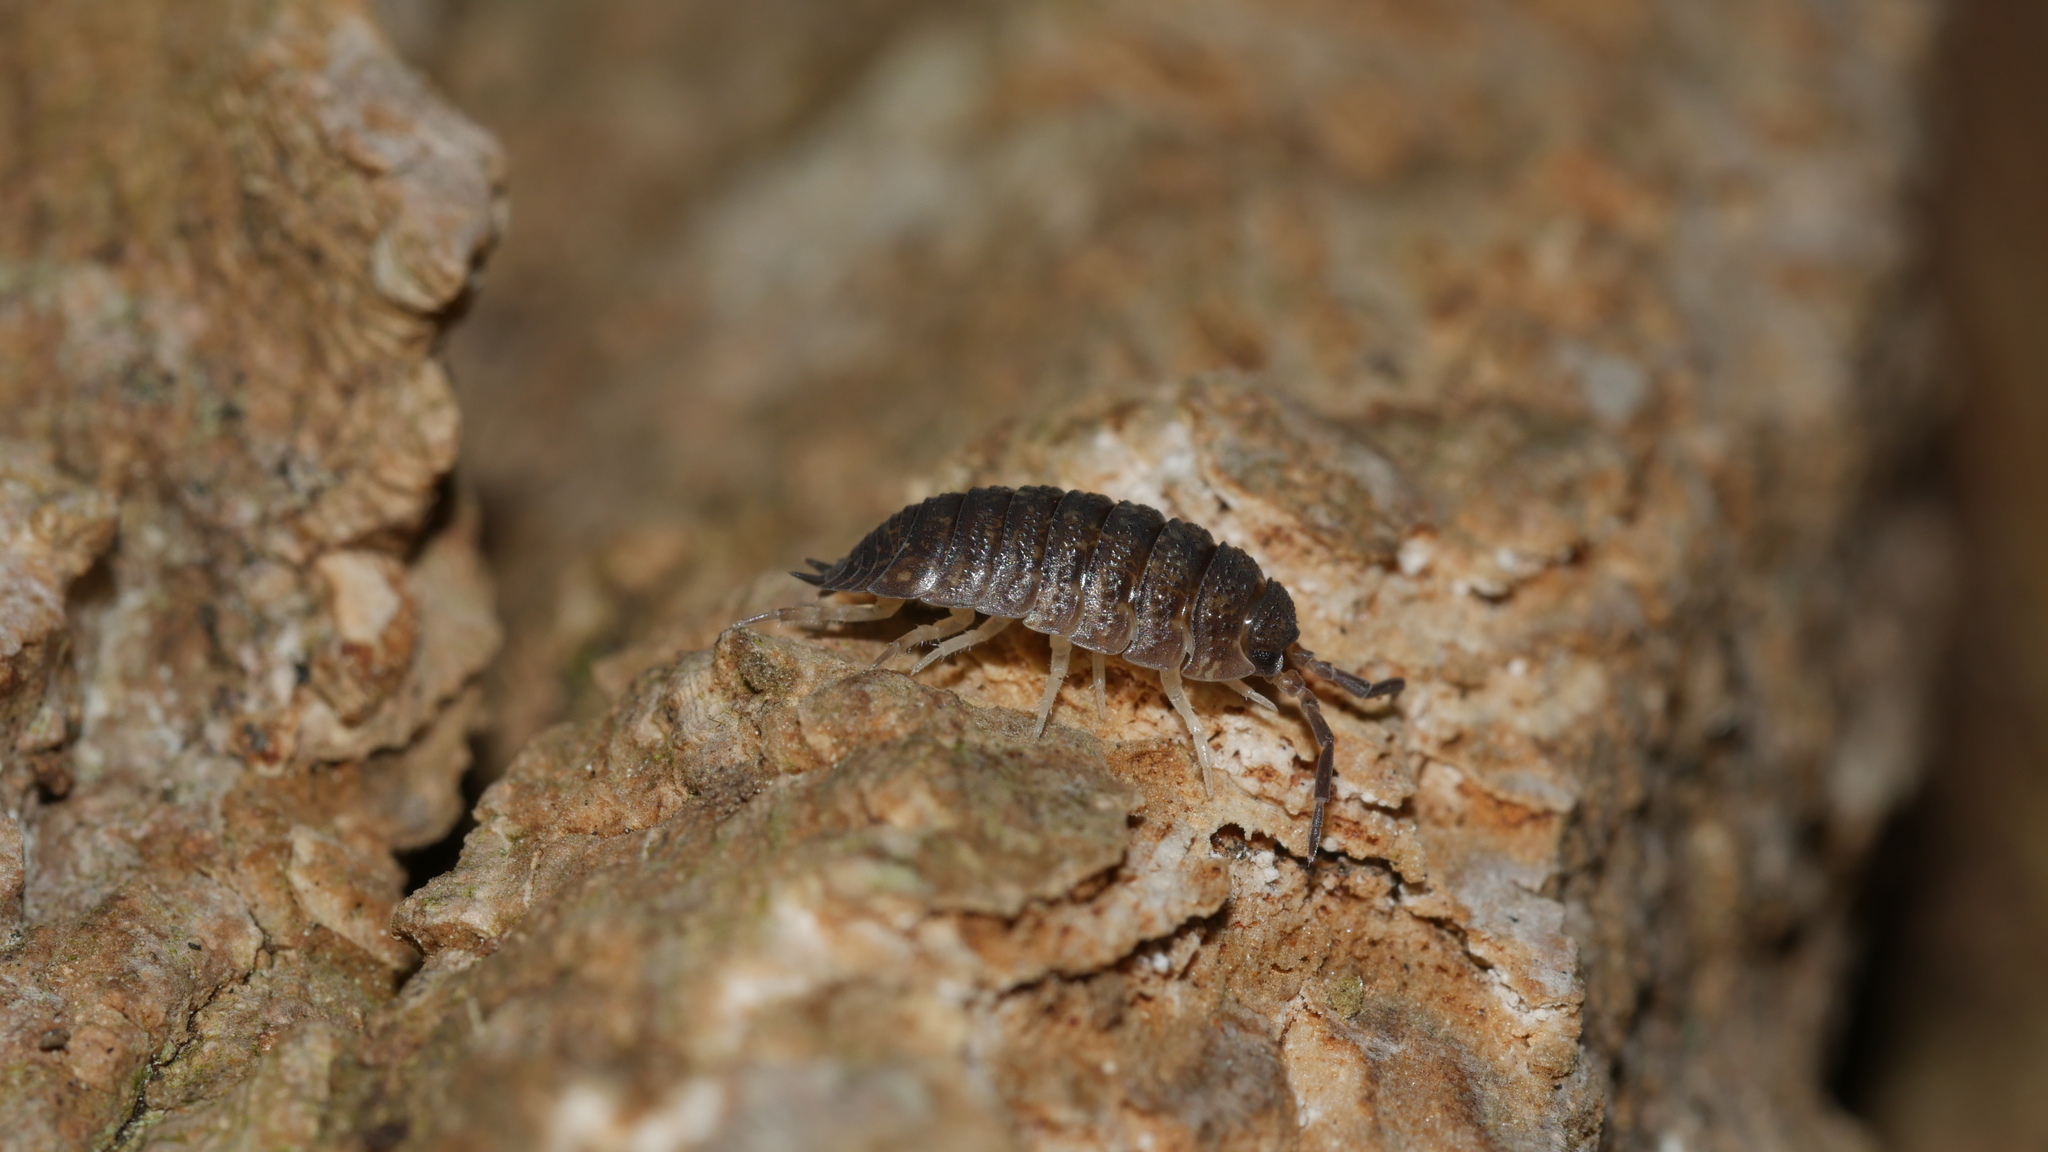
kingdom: Animalia
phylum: Arthropoda
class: Malacostraca
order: Isopoda
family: Porcellionidae
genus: Porcellio
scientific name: Porcellio scaber
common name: Common rough woodlouse
